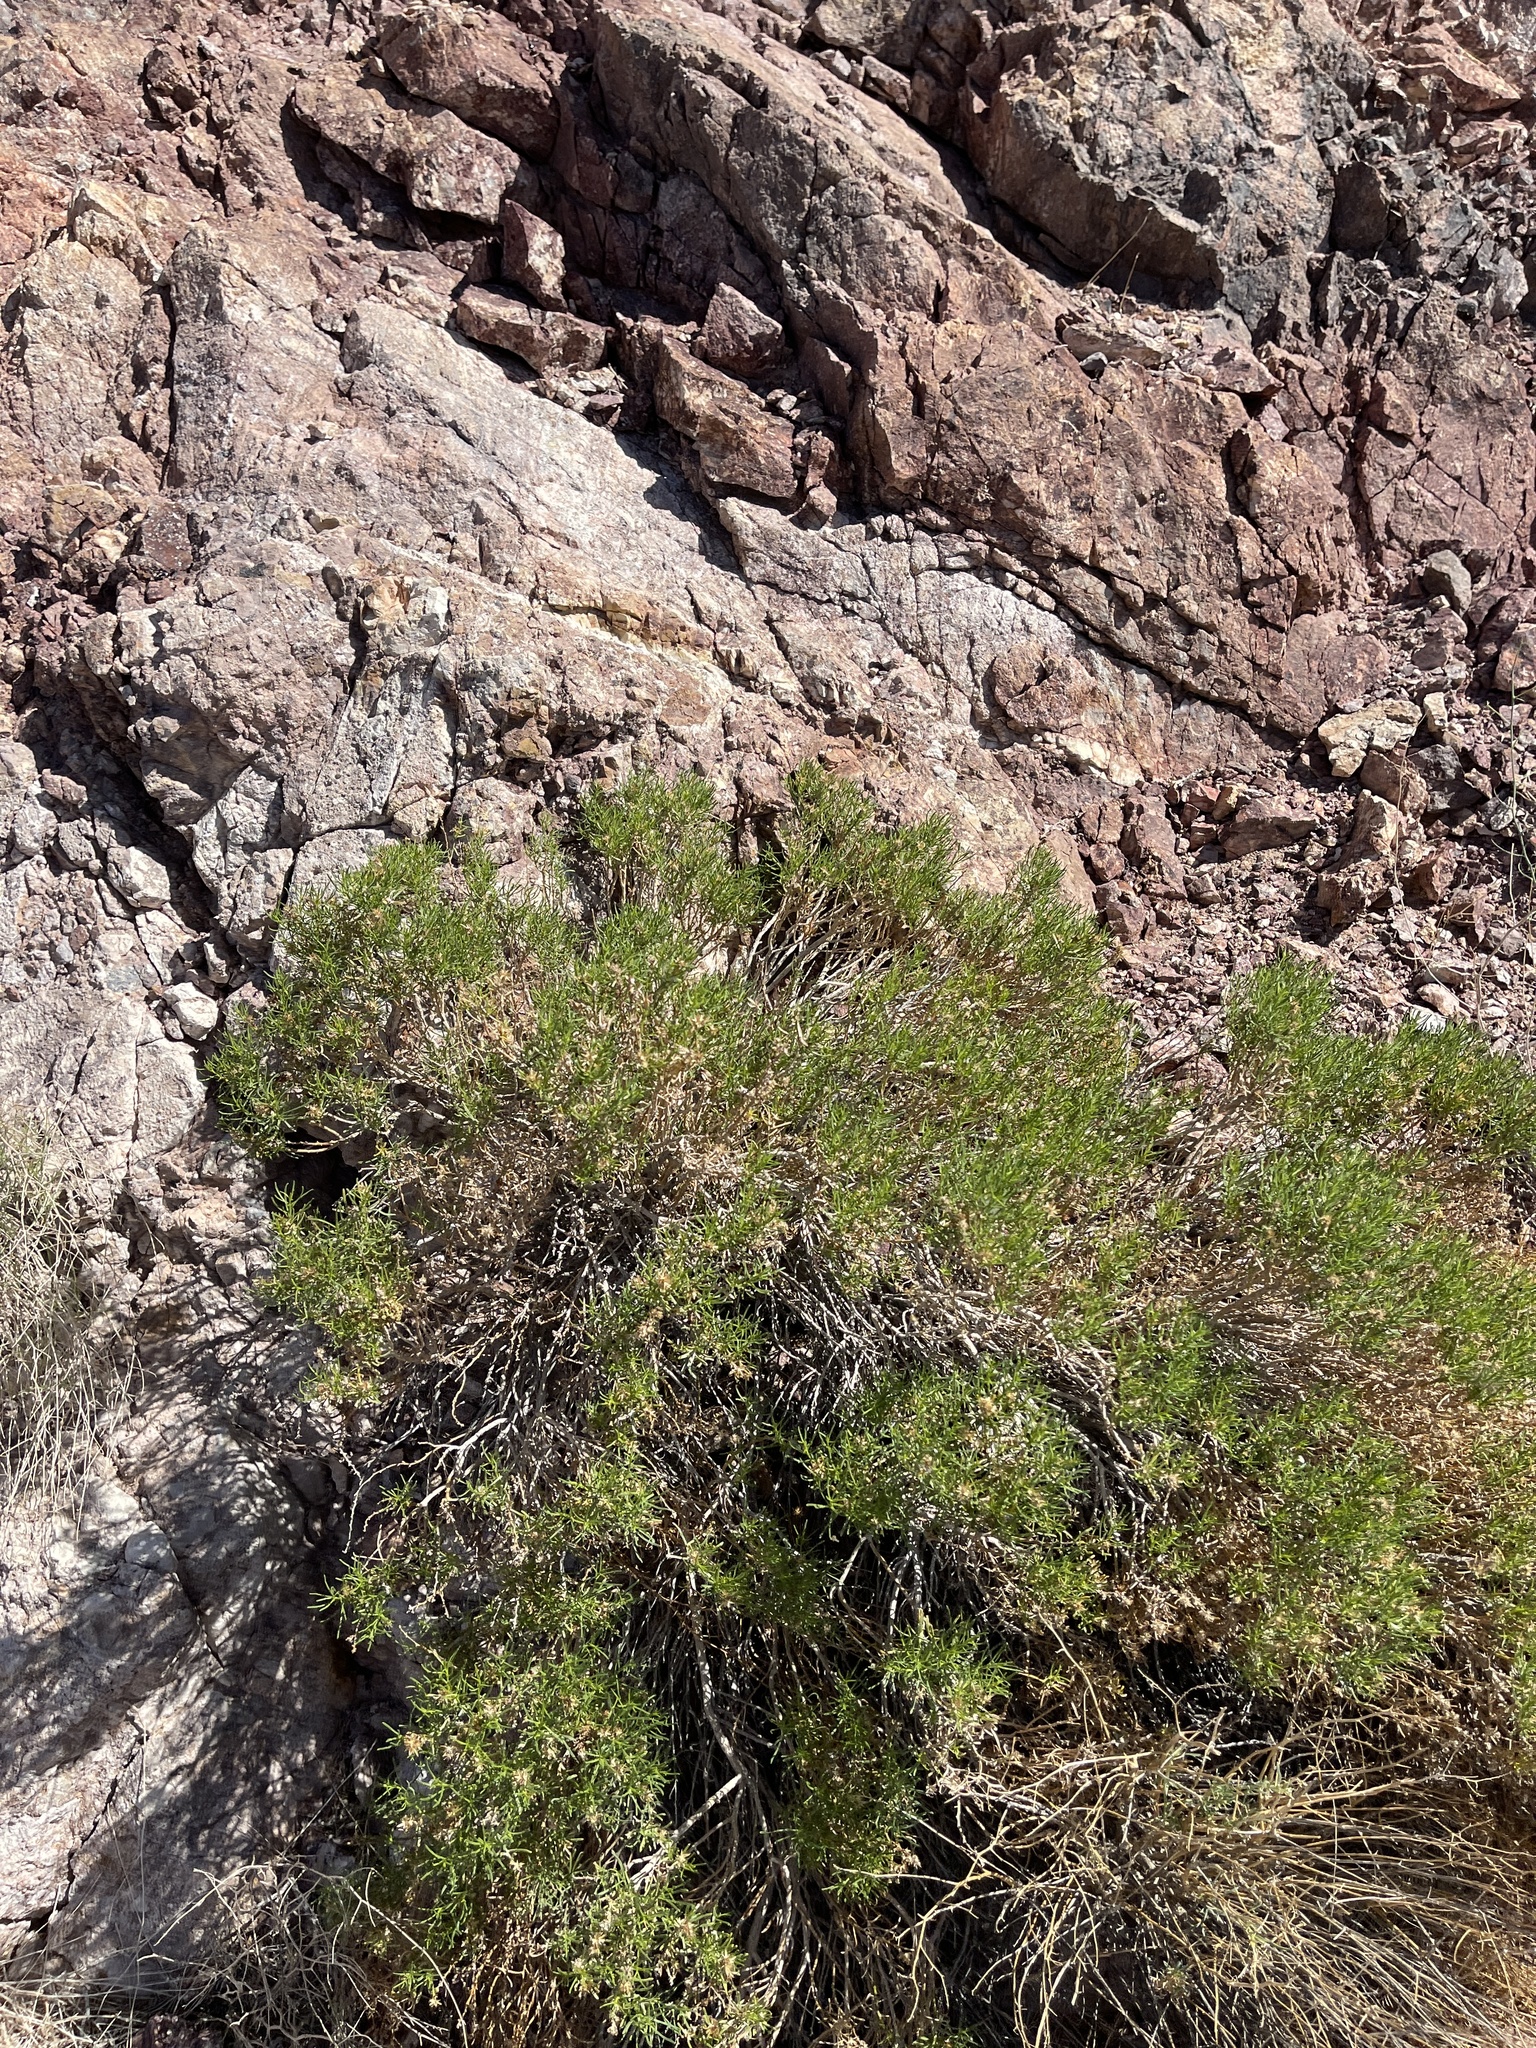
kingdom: Plantae
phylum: Tracheophyta
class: Magnoliopsida
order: Asterales
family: Asteraceae
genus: Peucephyllum
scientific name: Peucephyllum schottii
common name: Pygmy-cedar
